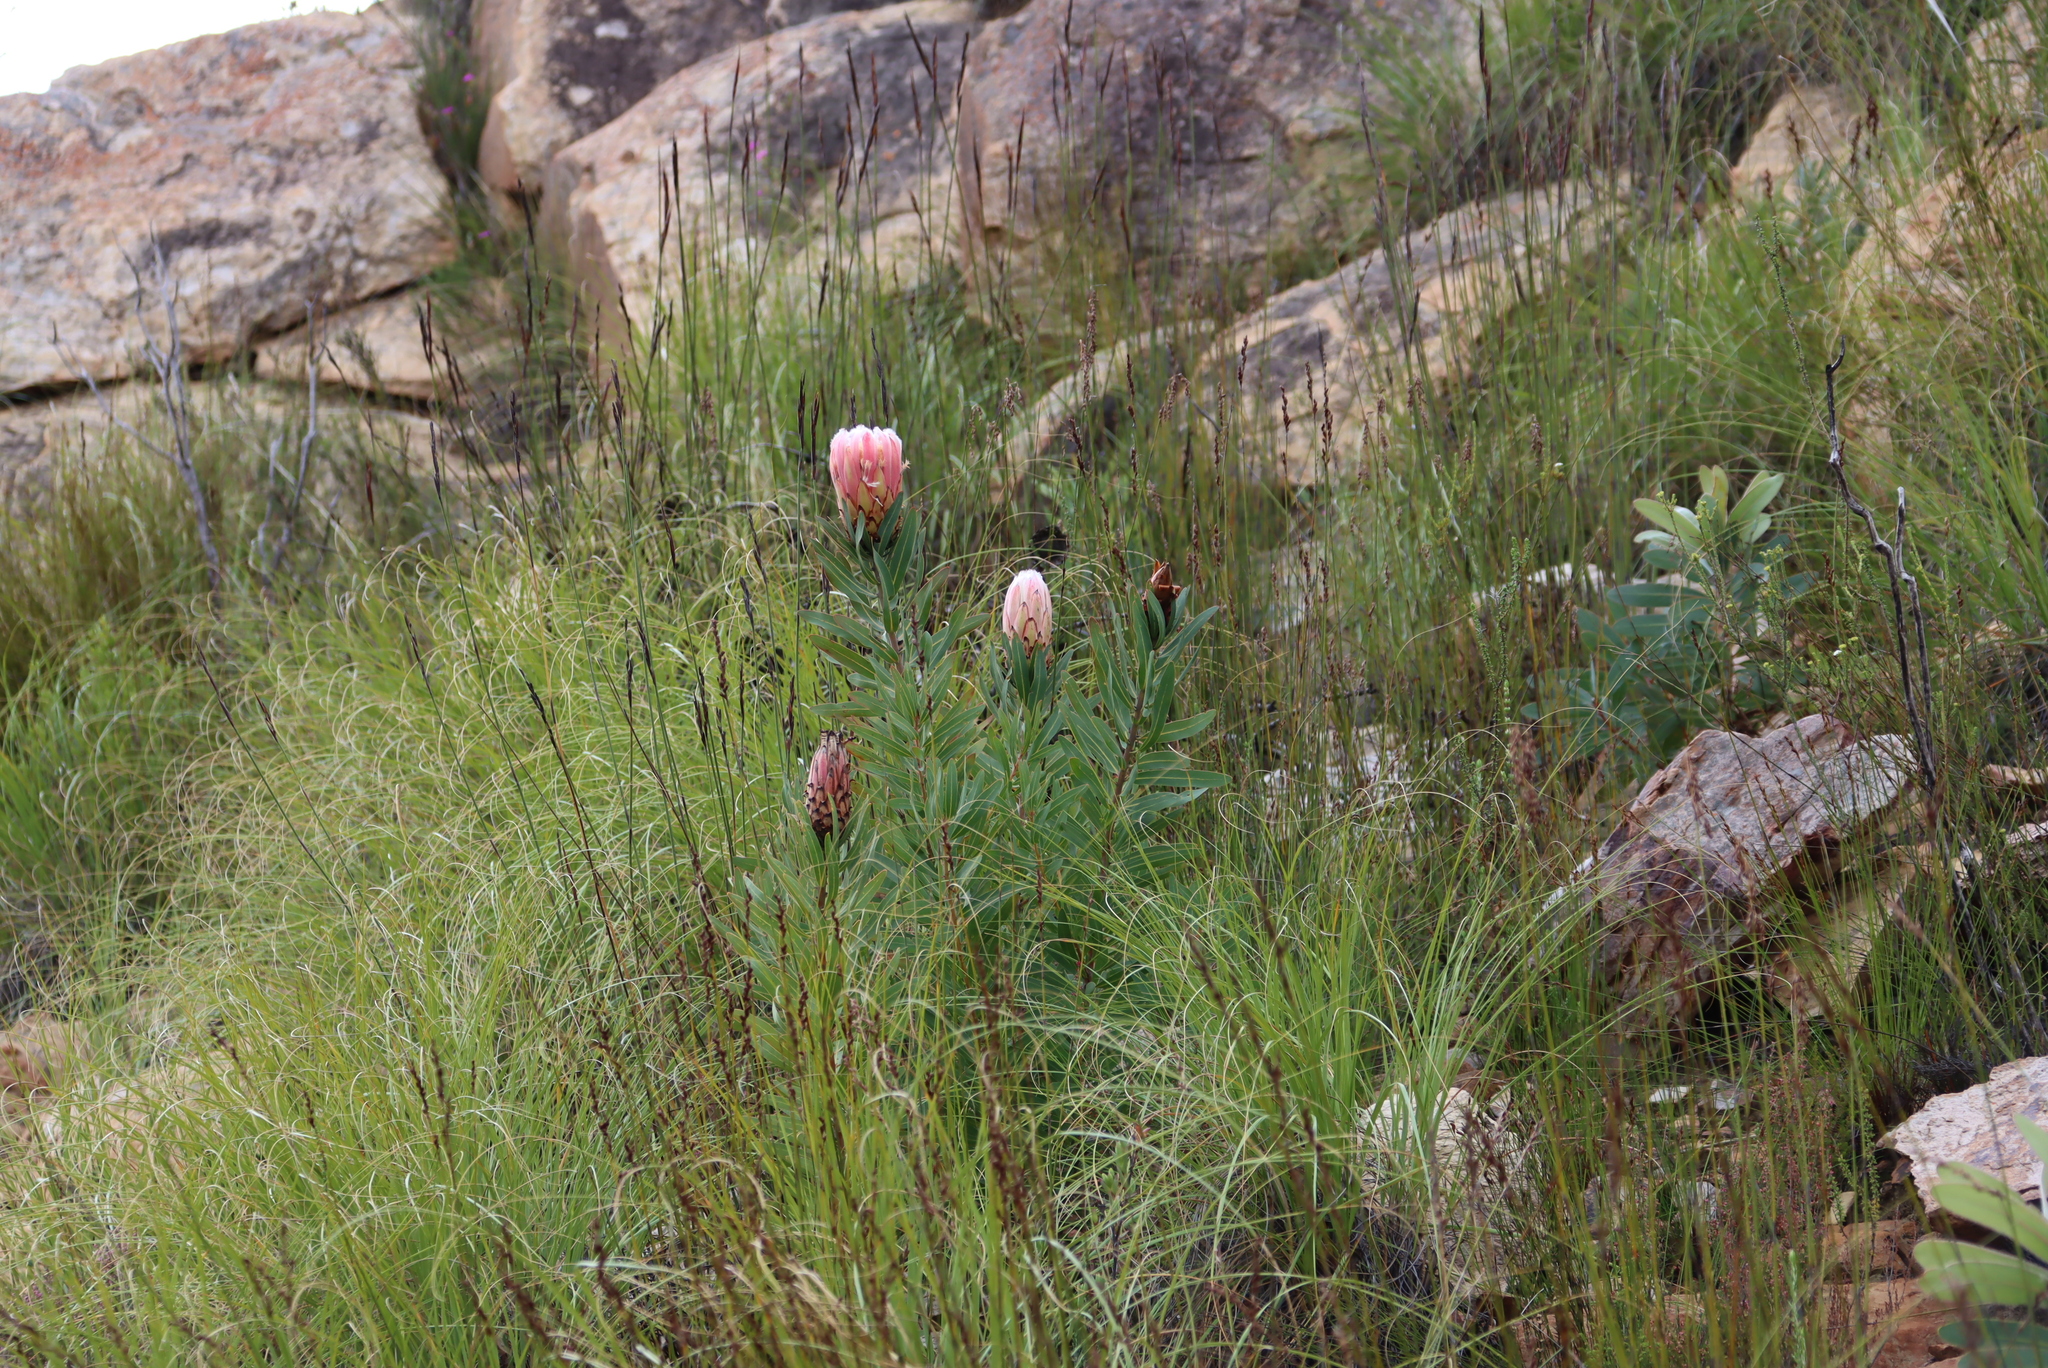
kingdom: Plantae
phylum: Tracheophyta
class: Magnoliopsida
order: Proteales
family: Proteaceae
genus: Protea
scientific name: Protea neriifolia
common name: Blue sugarbush
